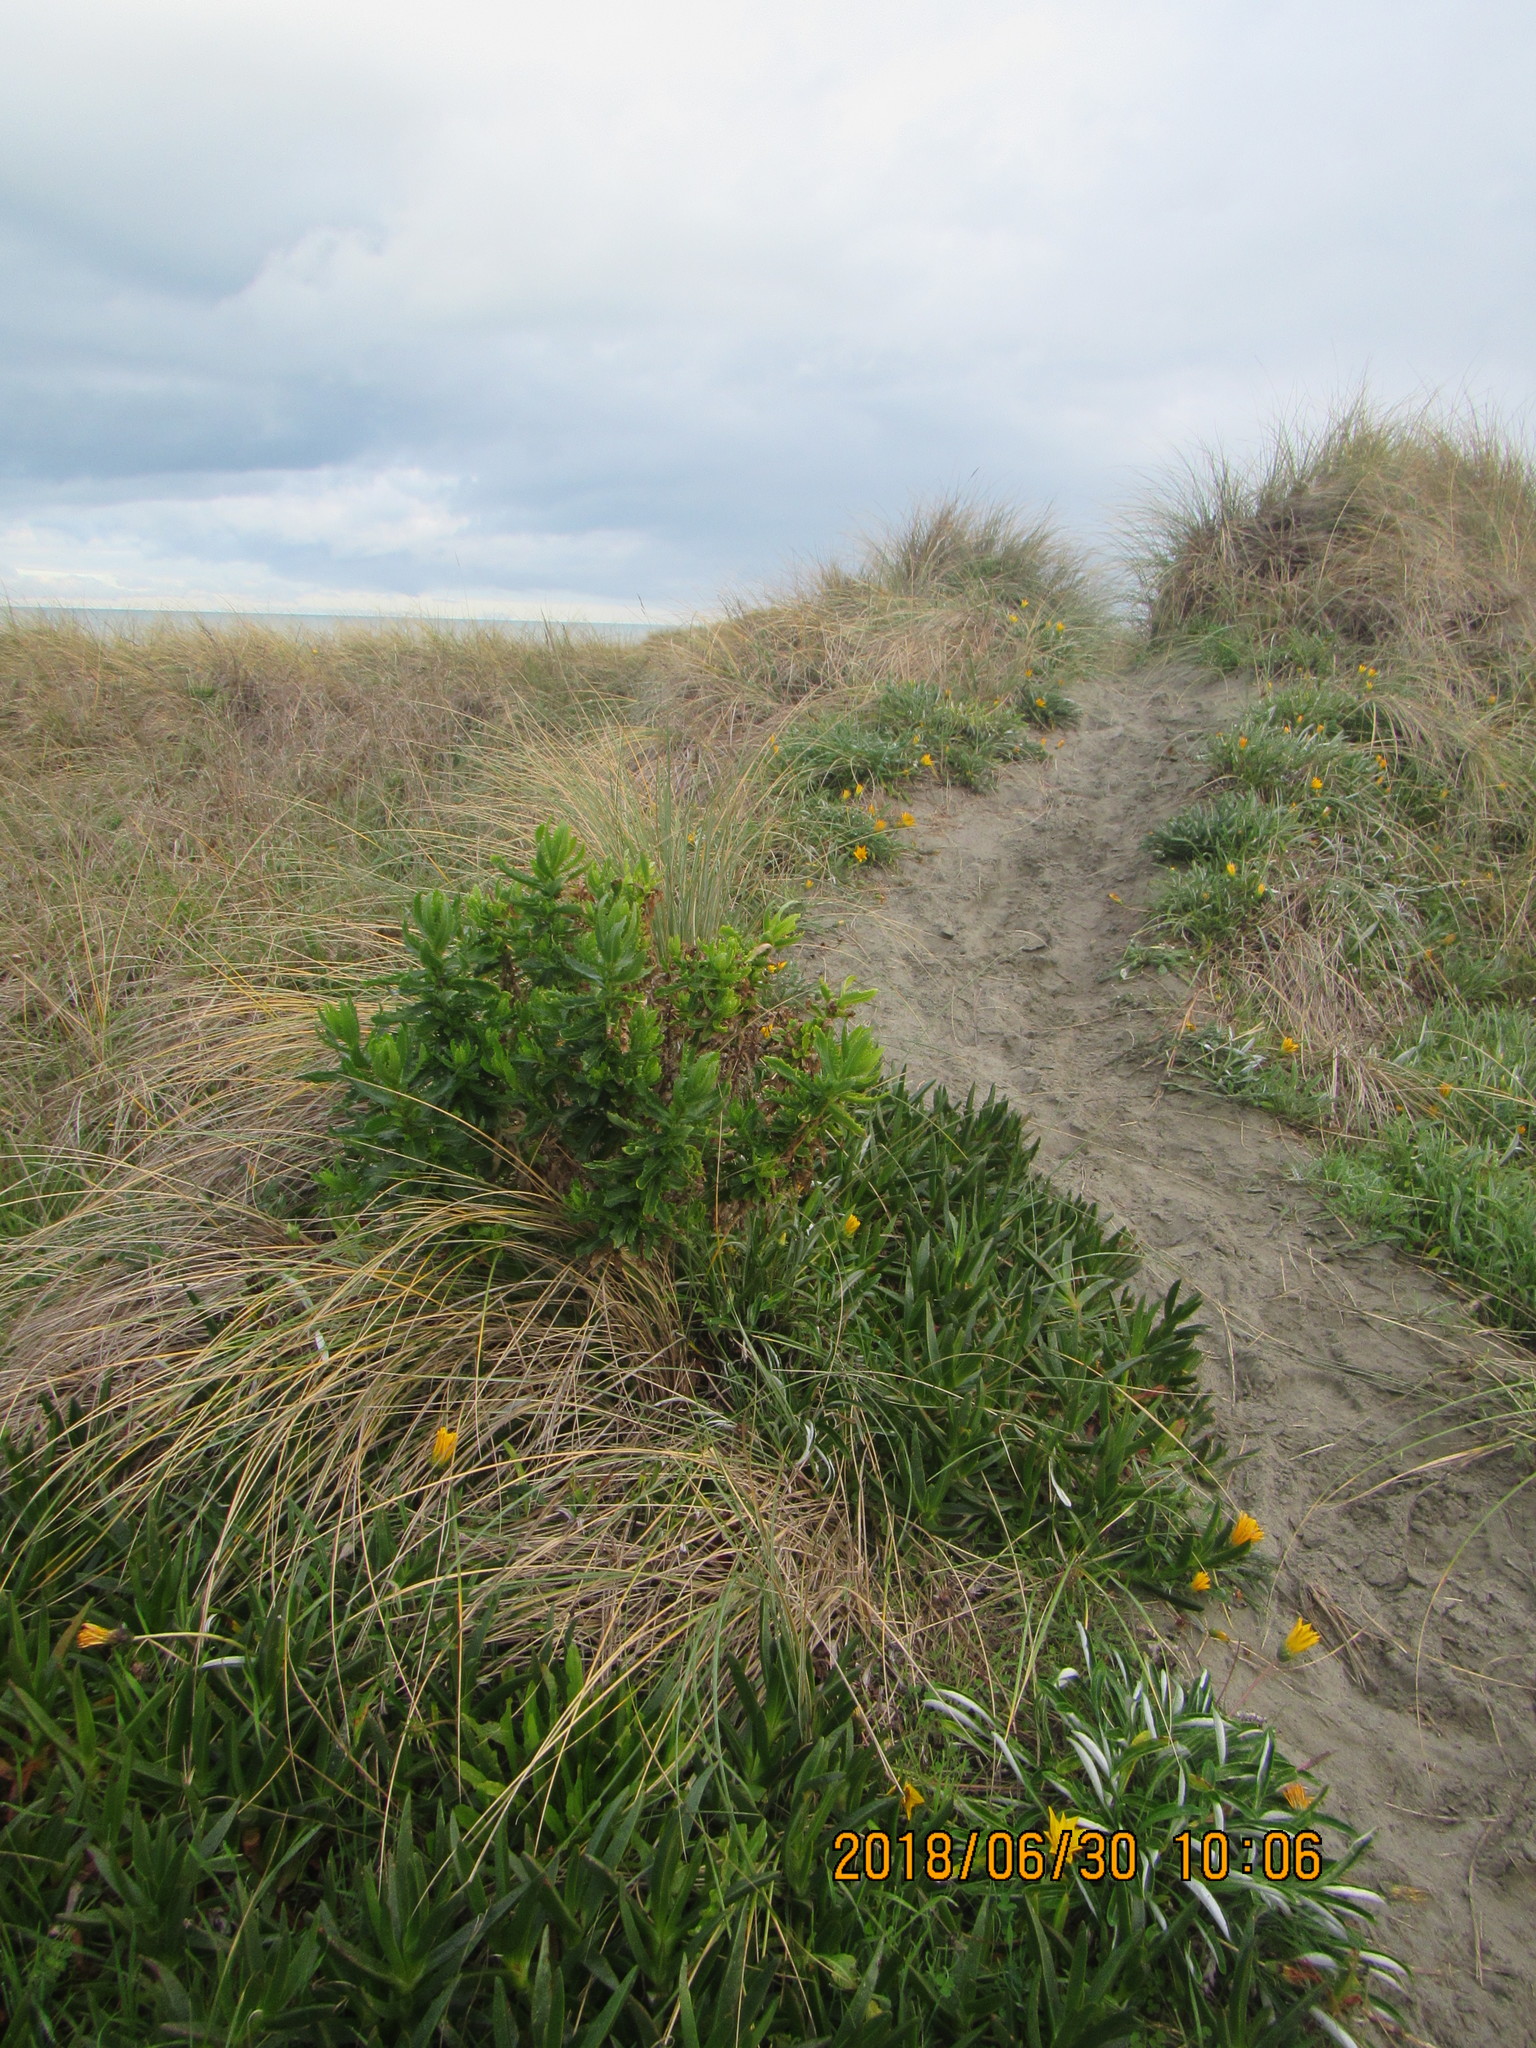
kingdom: Plantae
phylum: Tracheophyta
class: Magnoliopsida
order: Asterales
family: Asteraceae
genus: Senecio
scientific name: Senecio glastifolius
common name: Woad-leaved ragwort
